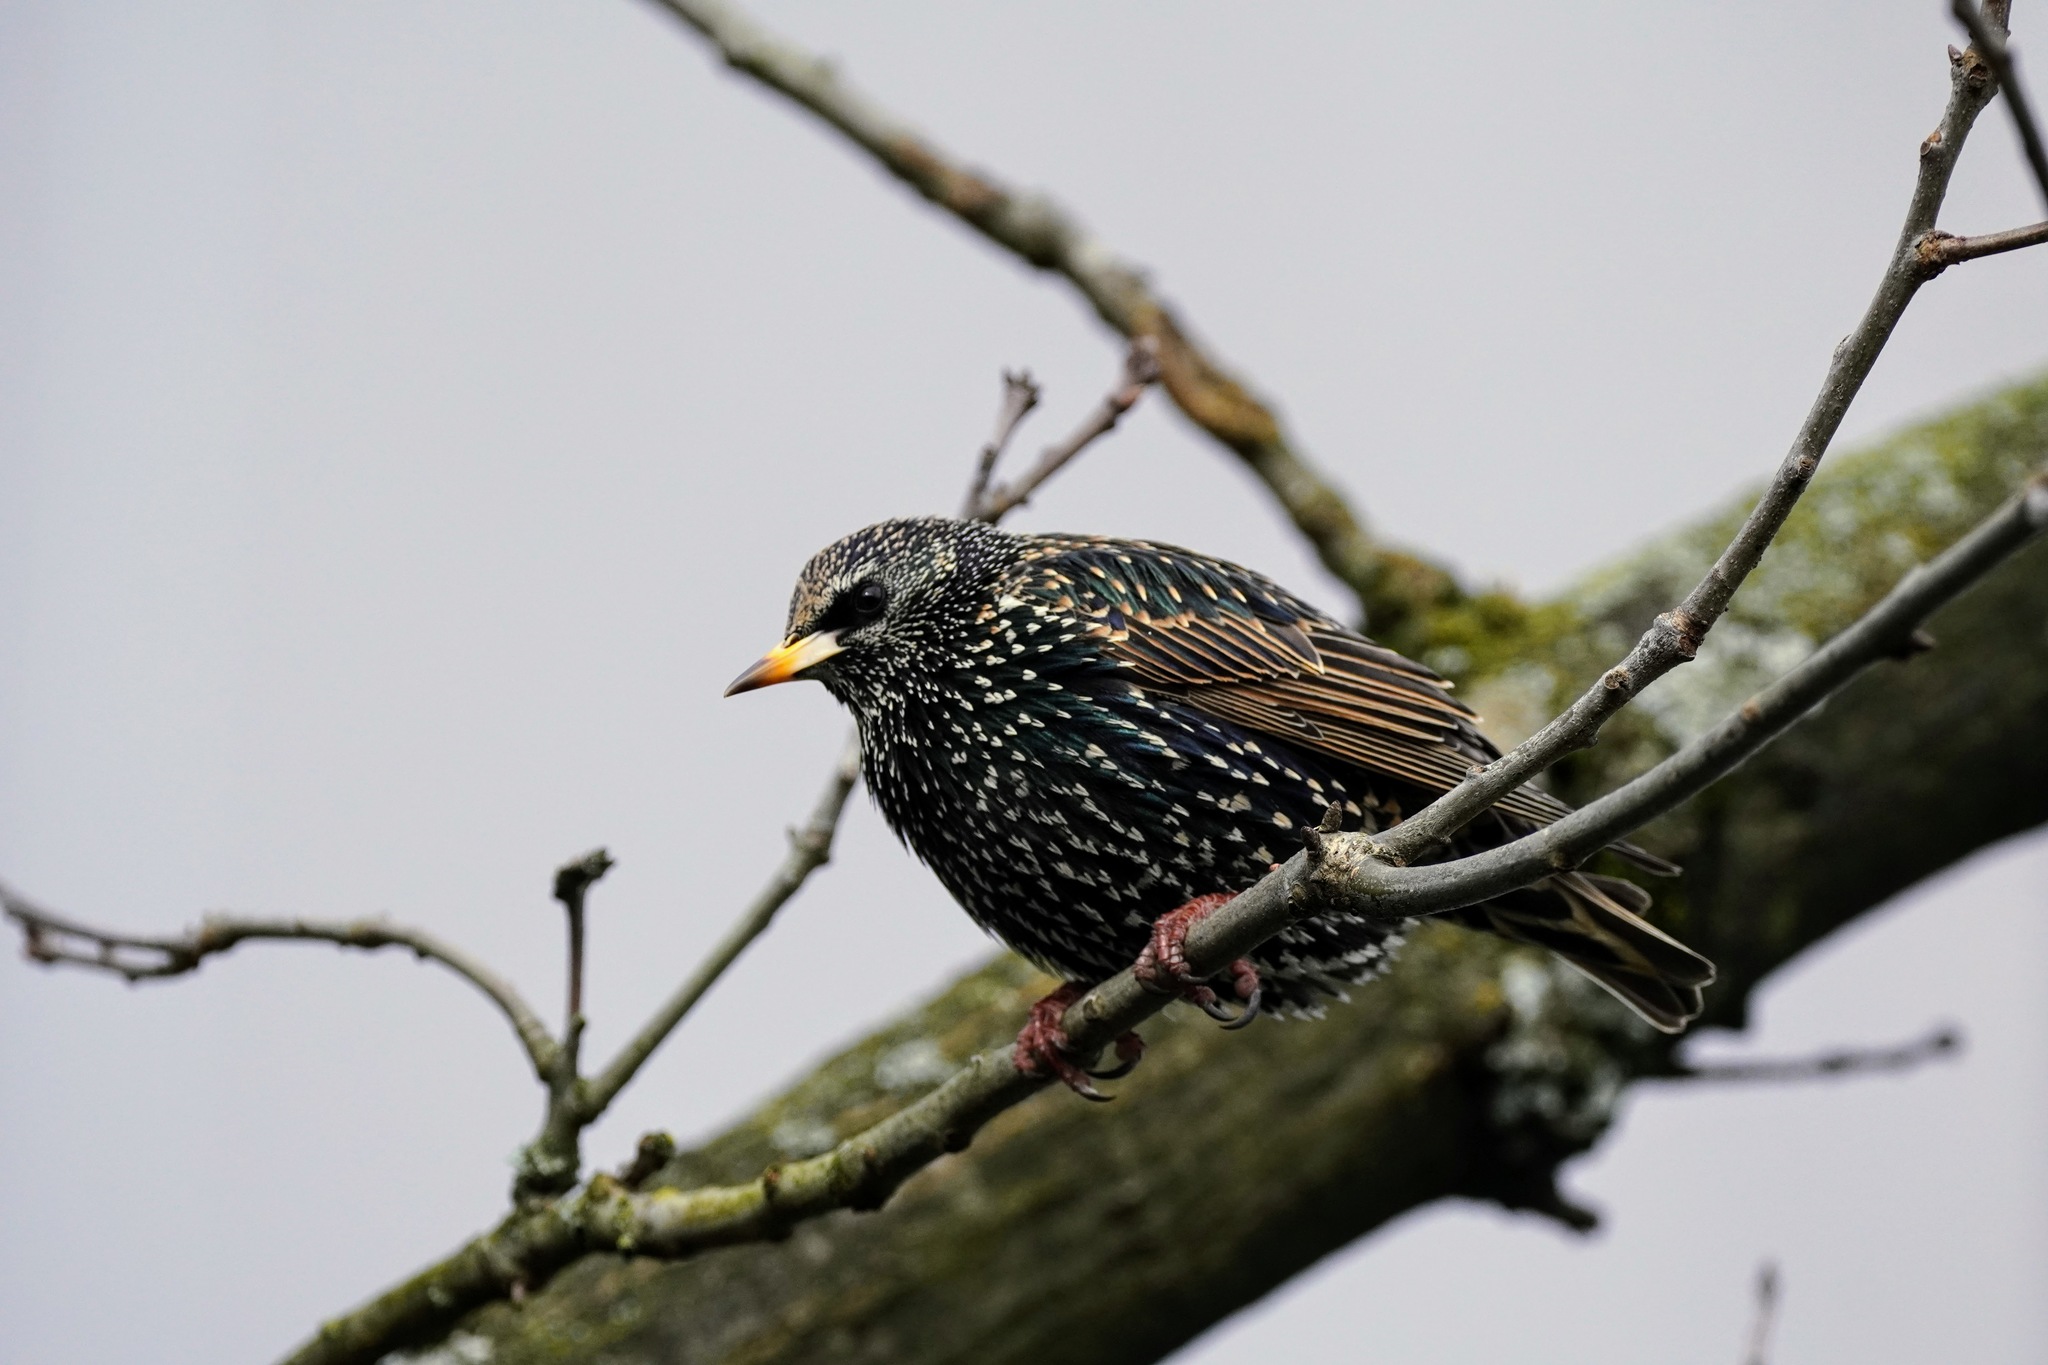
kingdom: Animalia
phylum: Chordata
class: Aves
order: Passeriformes
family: Sturnidae
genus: Sturnus
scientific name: Sturnus vulgaris
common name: Common starling
